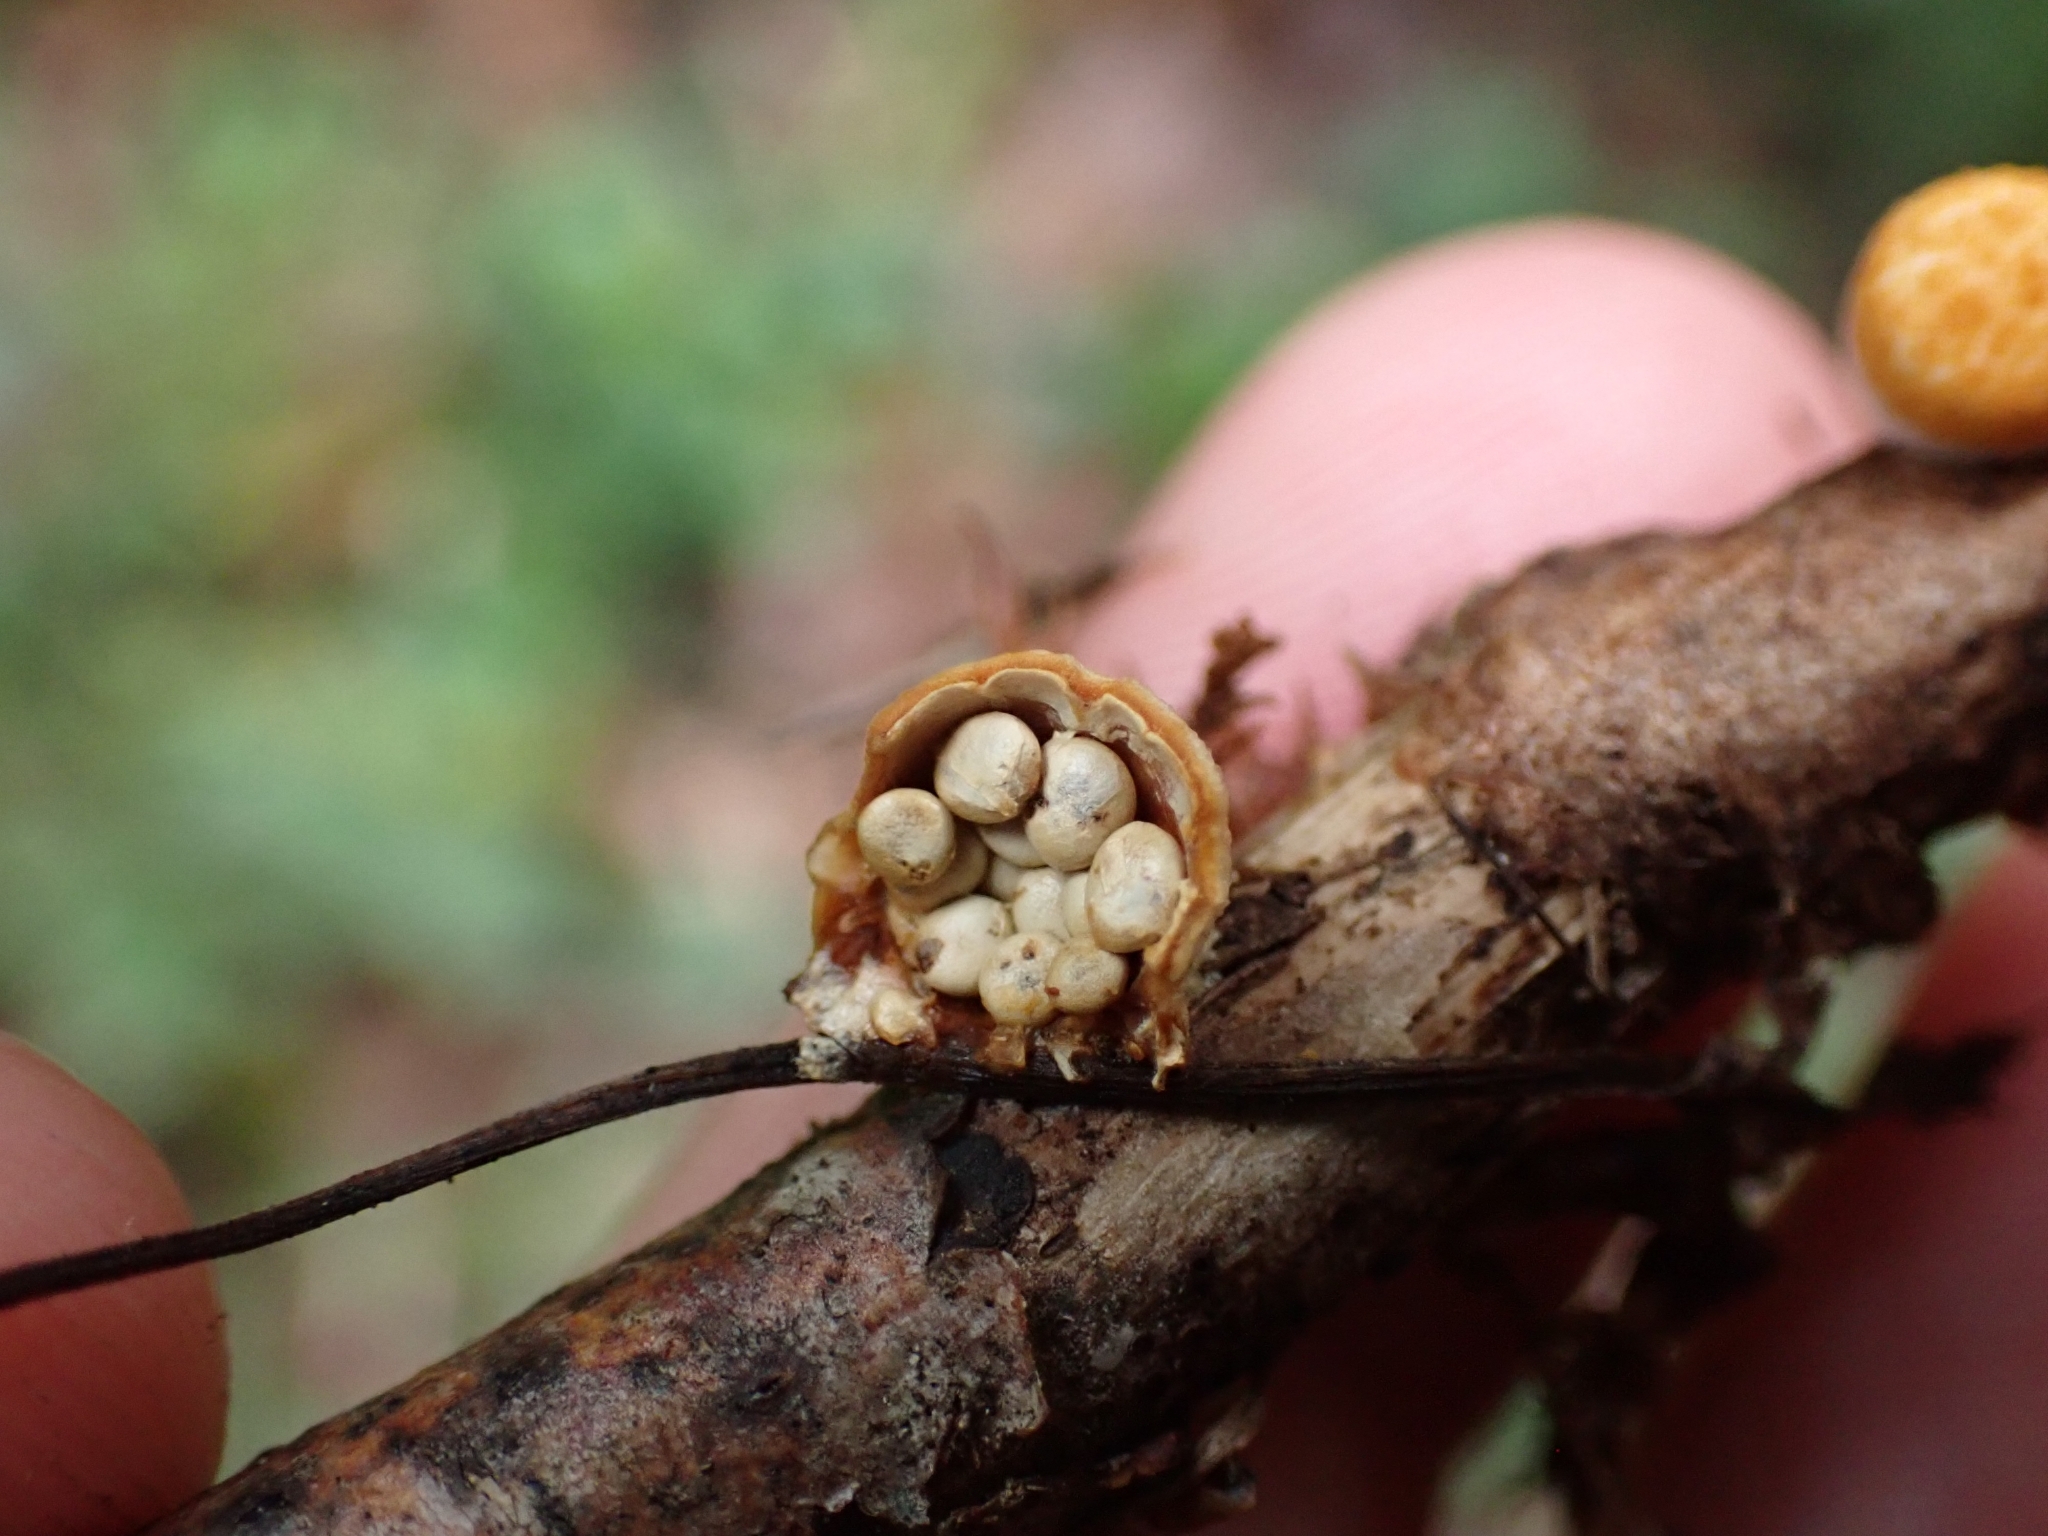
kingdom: Fungi
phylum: Basidiomycota
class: Agaricomycetes
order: Agaricales
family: Nidulariaceae
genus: Crucibulum
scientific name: Crucibulum laeve
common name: Common bird's nest
